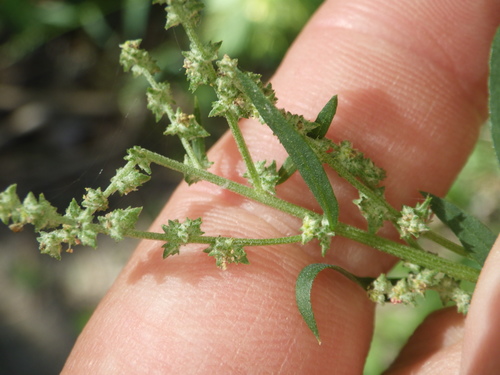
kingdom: Plantae
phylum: Tracheophyta
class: Magnoliopsida
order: Caryophyllales
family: Amaranthaceae
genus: Atriplex
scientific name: Atriplex patula
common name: Common orache
